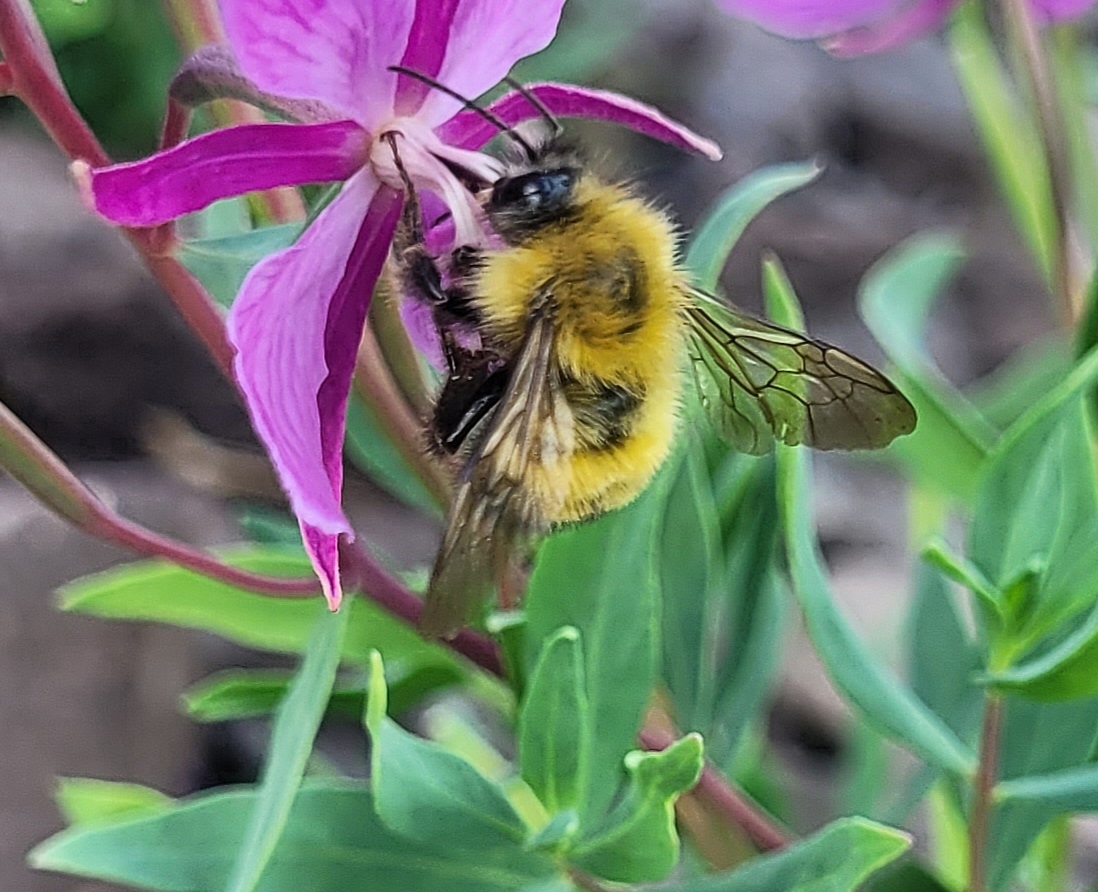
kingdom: Animalia
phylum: Arthropoda
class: Insecta
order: Hymenoptera
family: Apidae
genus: Bombus
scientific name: Bombus perplexus
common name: Confusing bumble bee
